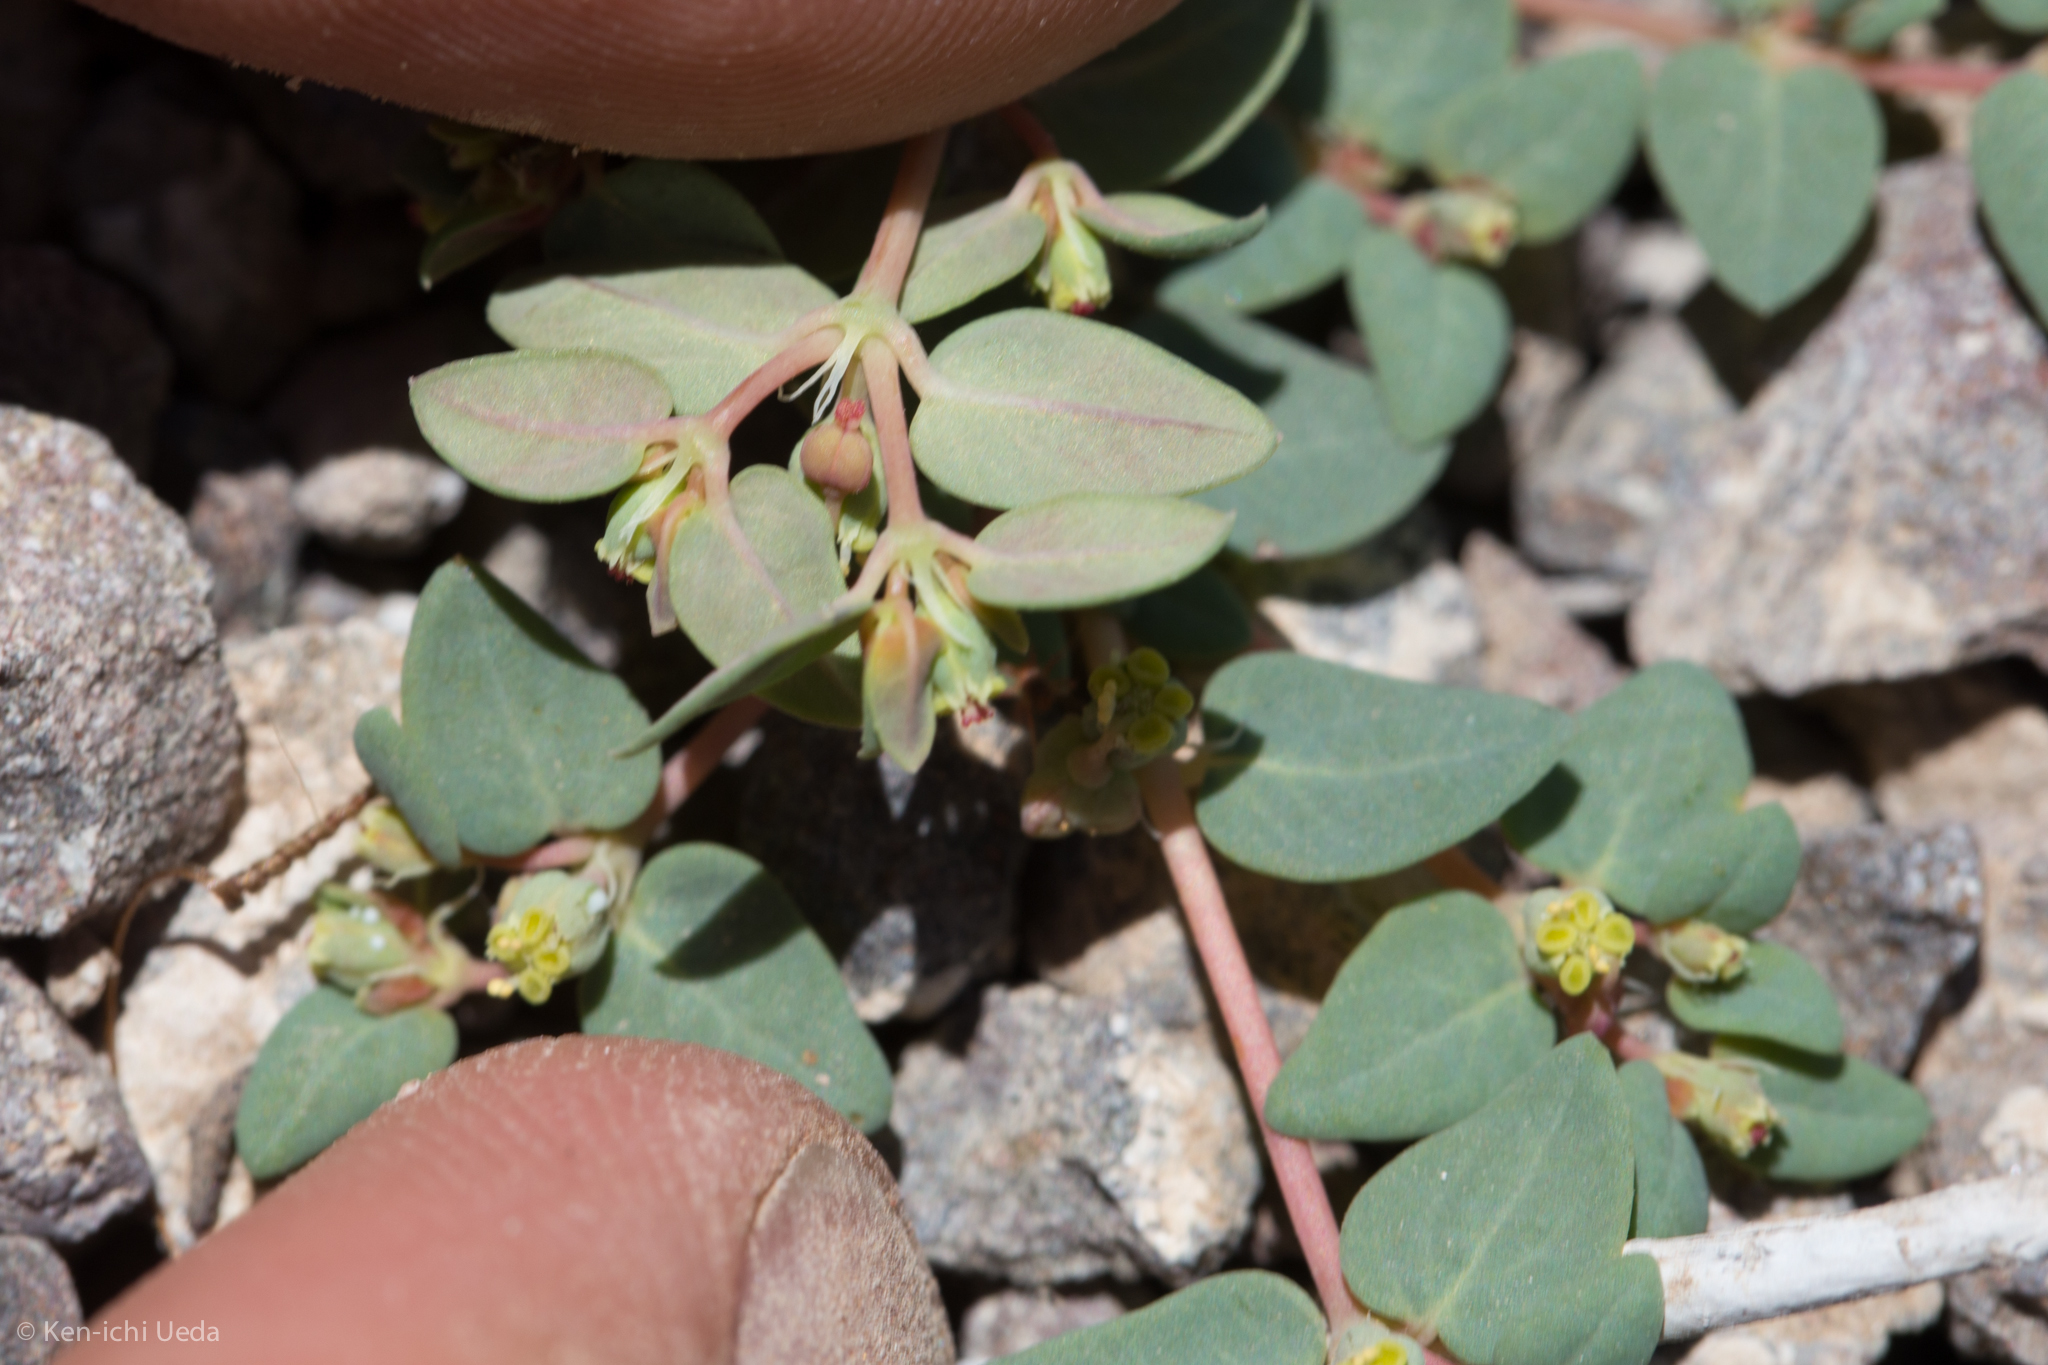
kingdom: Plantae
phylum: Tracheophyta
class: Magnoliopsida
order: Malpighiales
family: Euphorbiaceae
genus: Euphorbia
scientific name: Euphorbia ocellata
